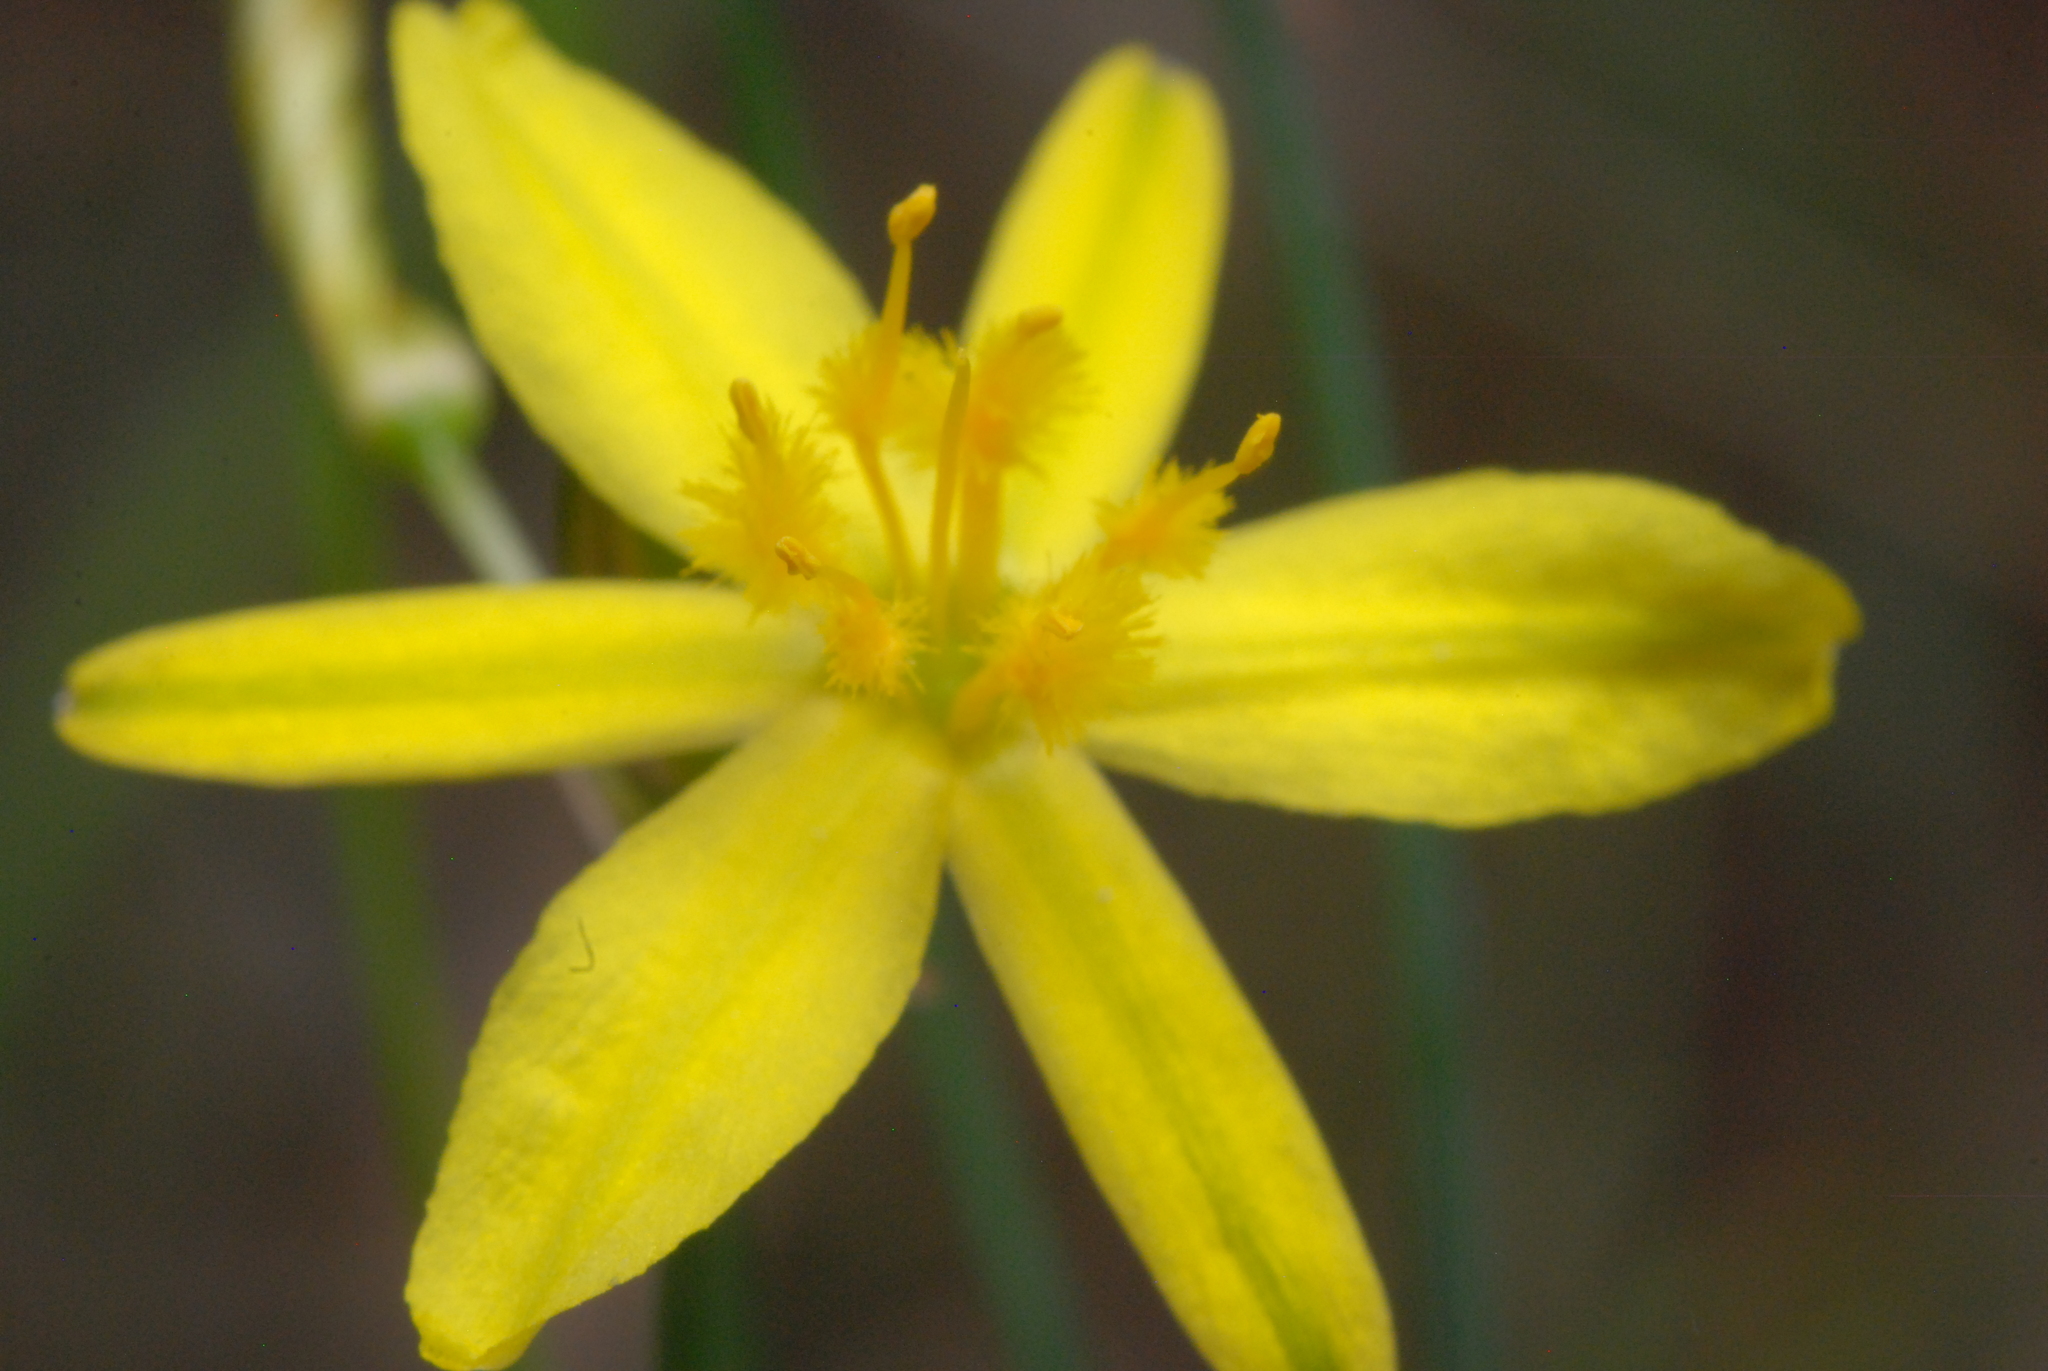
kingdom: Plantae
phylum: Tracheophyta
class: Liliopsida
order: Asparagales
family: Asphodelaceae
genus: Tricoryne
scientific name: Tricoryne elatior
